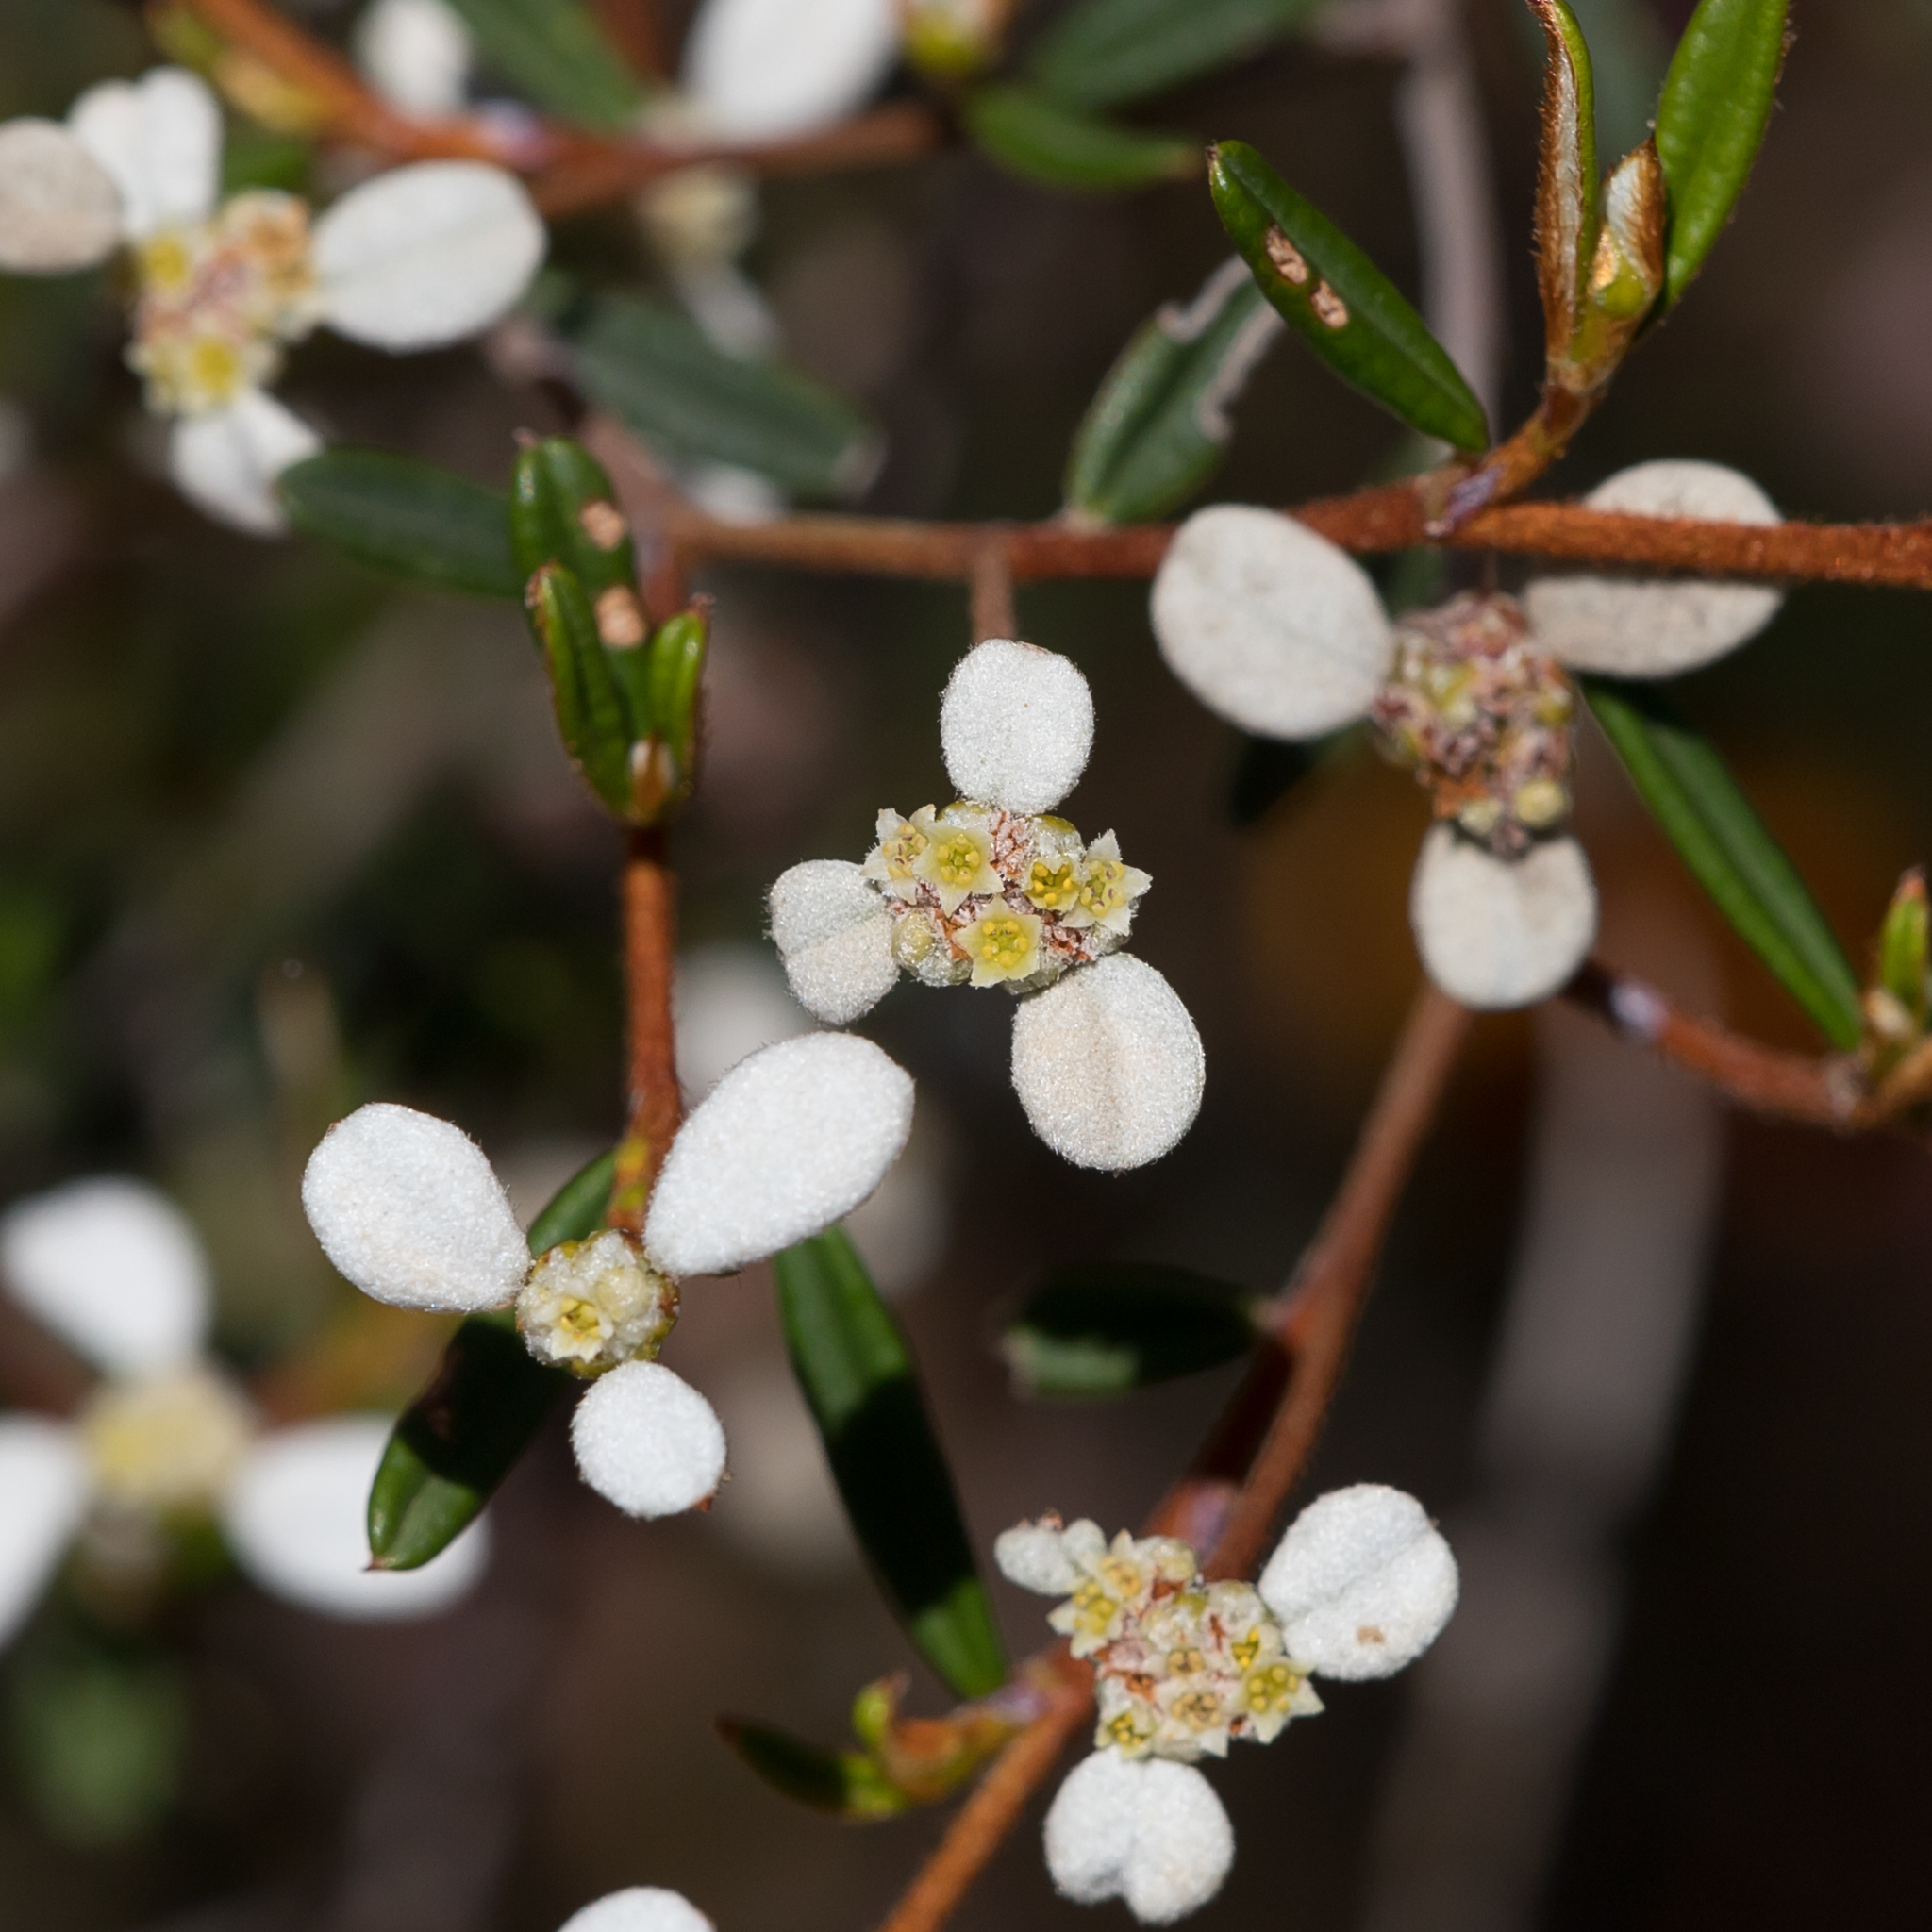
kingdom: Plantae
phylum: Tracheophyta
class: Magnoliopsida
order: Rosales
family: Rhamnaceae
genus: Spyridium
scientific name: Spyridium vexilliferum
